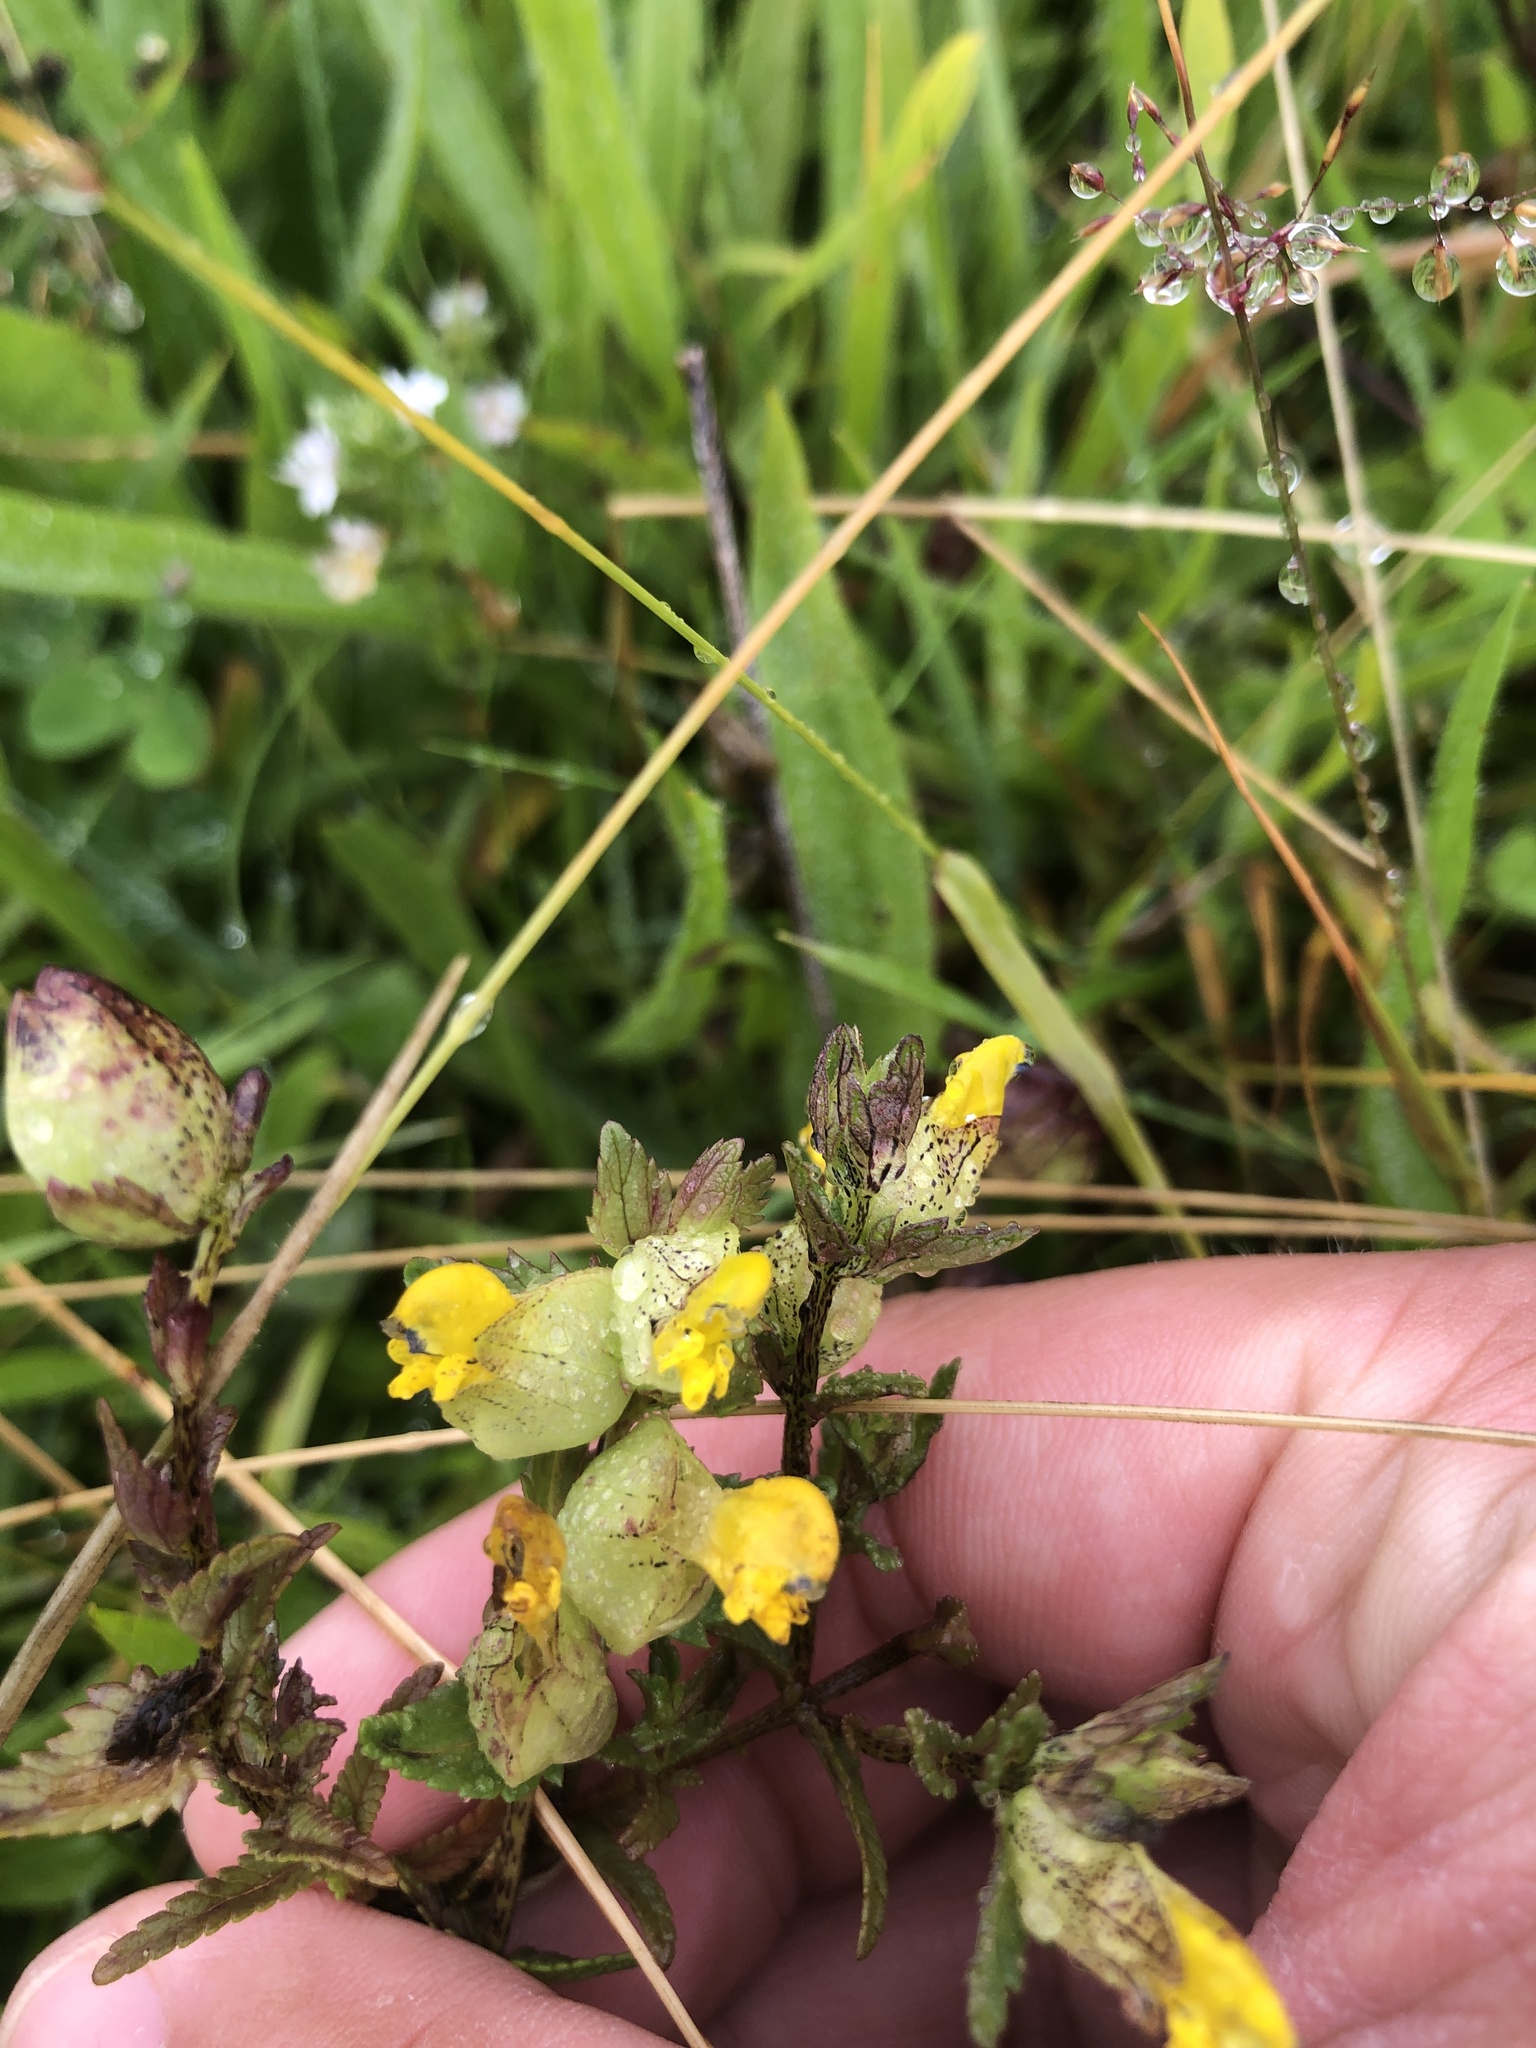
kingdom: Plantae
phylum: Tracheophyta
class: Magnoliopsida
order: Lamiales
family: Orobanchaceae
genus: Rhinanthus
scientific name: Rhinanthus minor
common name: Yellow-rattle
